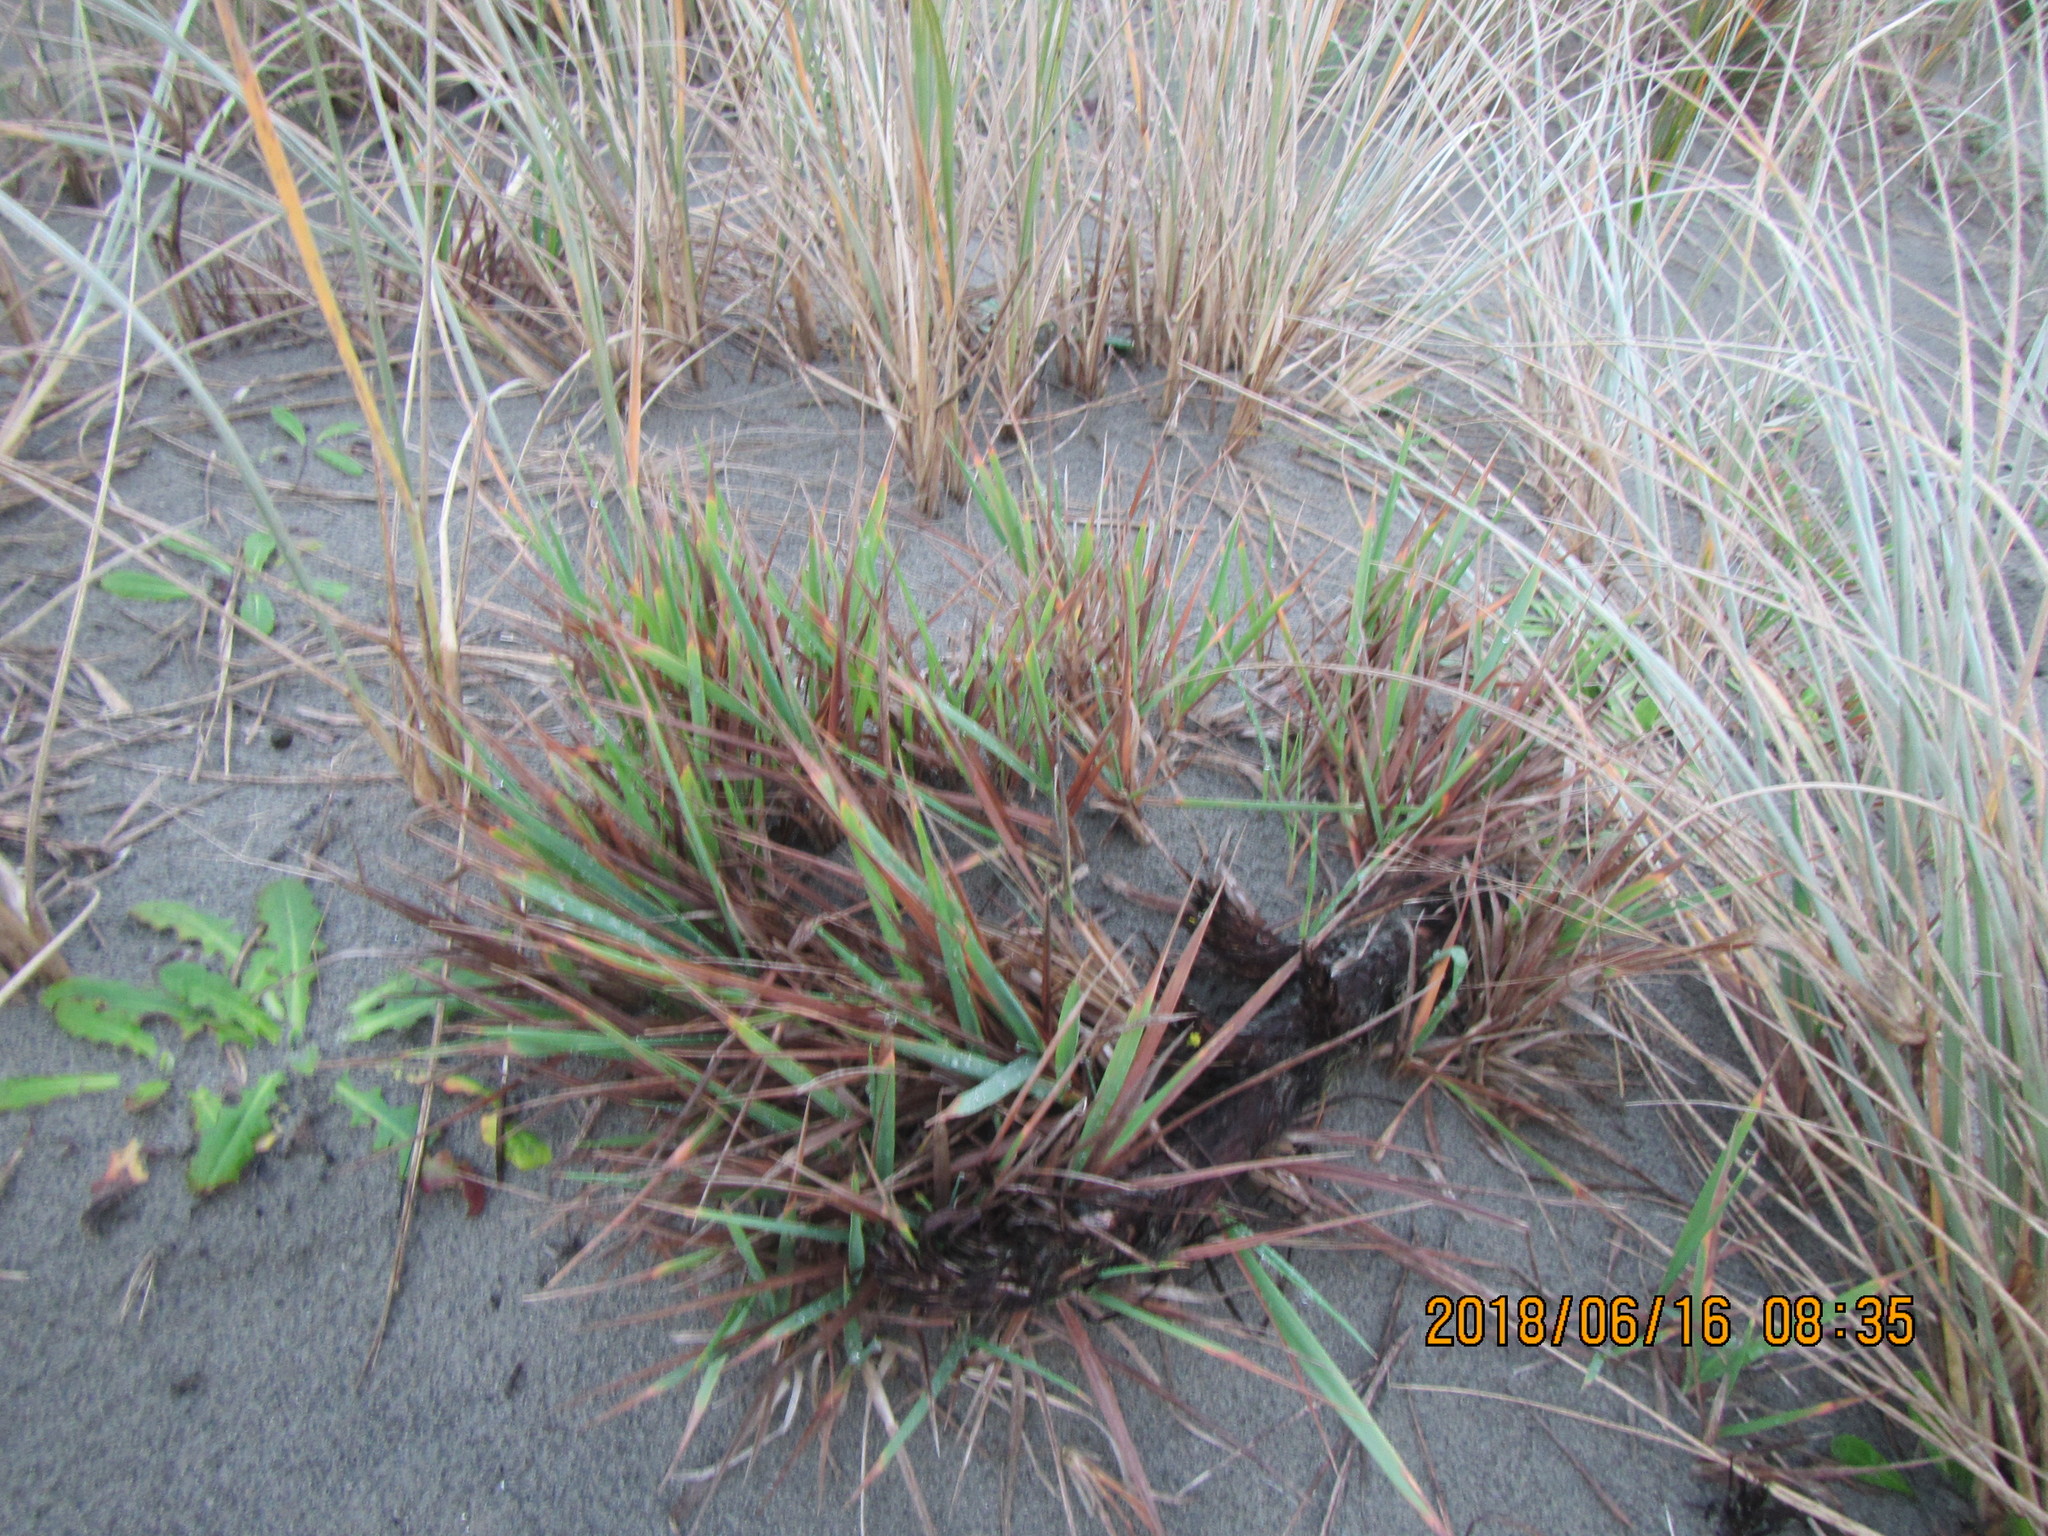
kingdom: Plantae
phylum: Tracheophyta
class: Liliopsida
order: Poales
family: Poaceae
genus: Lachnagrostis
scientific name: Lachnagrostis billardierei
